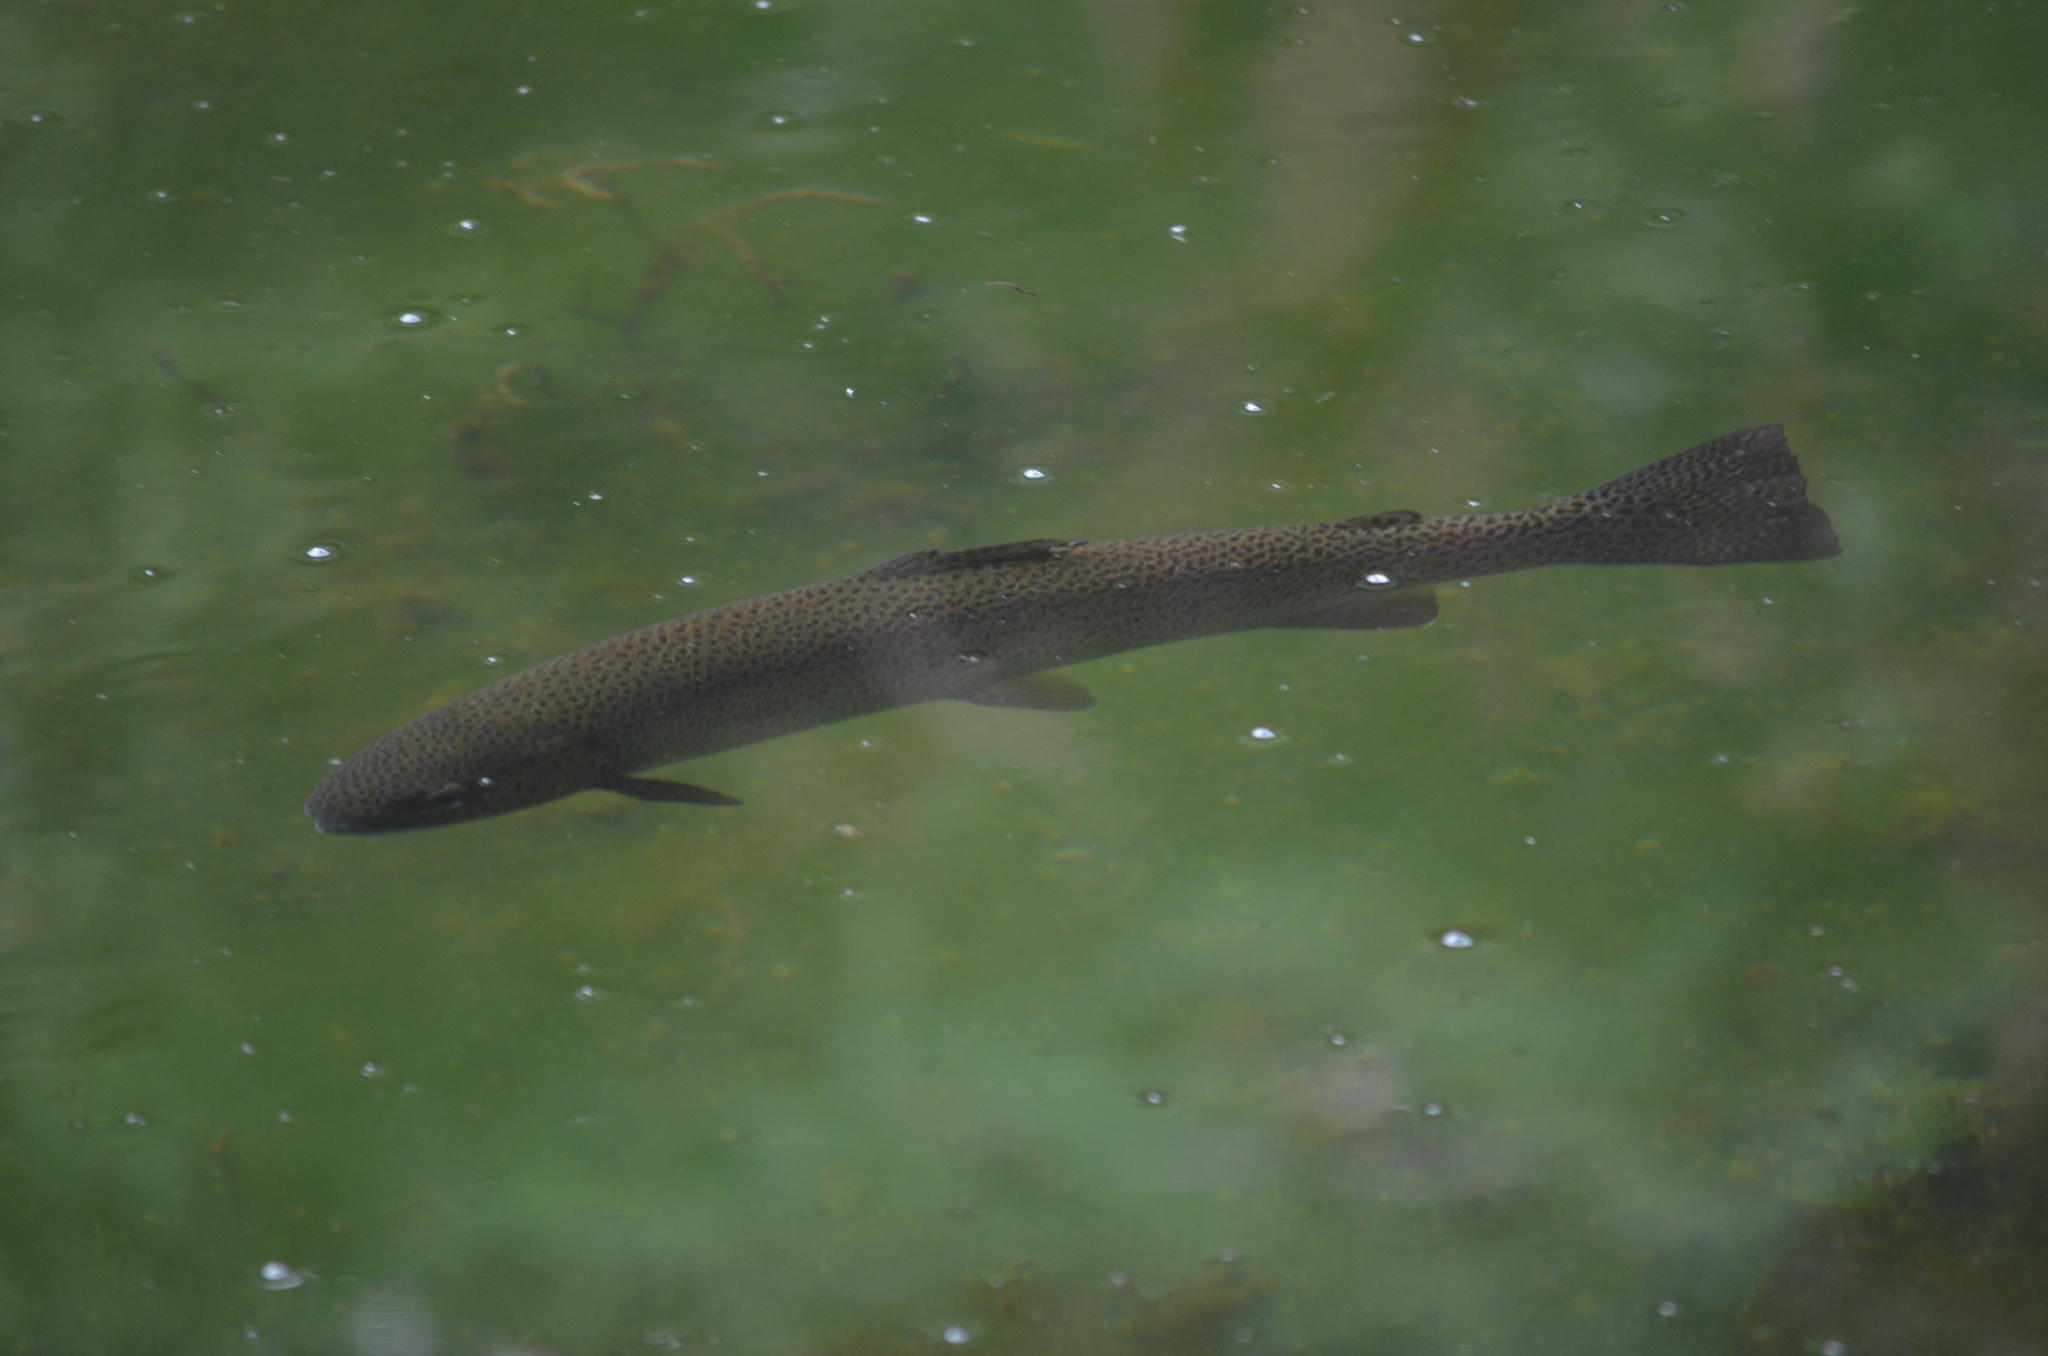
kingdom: Animalia
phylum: Chordata
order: Salmoniformes
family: Salmonidae
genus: Oncorhynchus
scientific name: Oncorhynchus mykiss
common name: Rainbow trout
